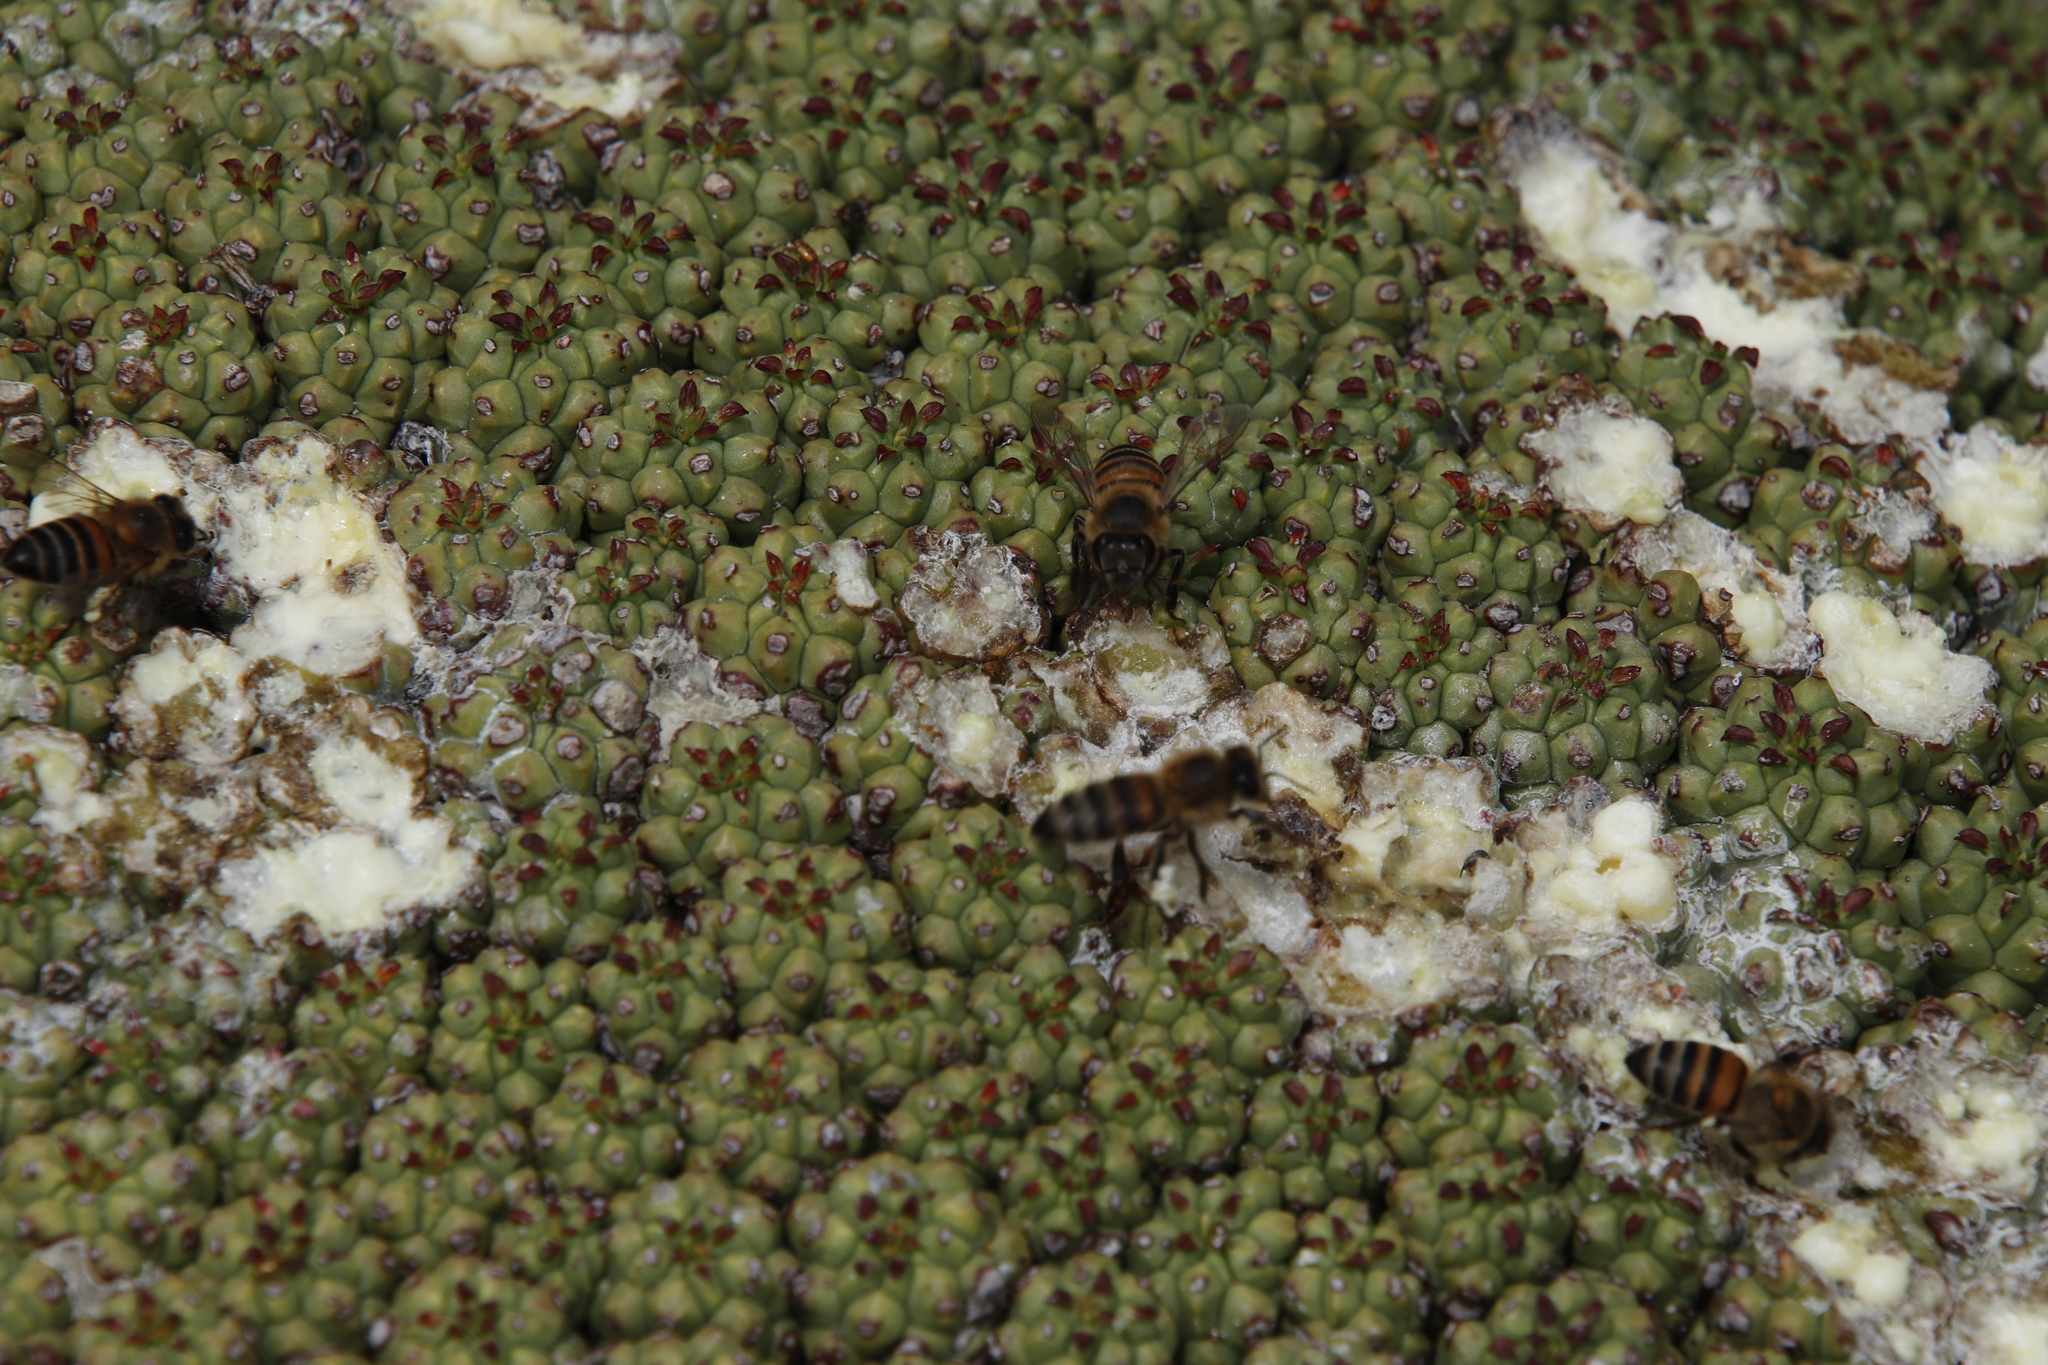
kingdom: Plantae
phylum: Tracheophyta
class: Magnoliopsida
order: Malpighiales
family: Euphorbiaceae
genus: Euphorbia
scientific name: Euphorbia clavarioides
